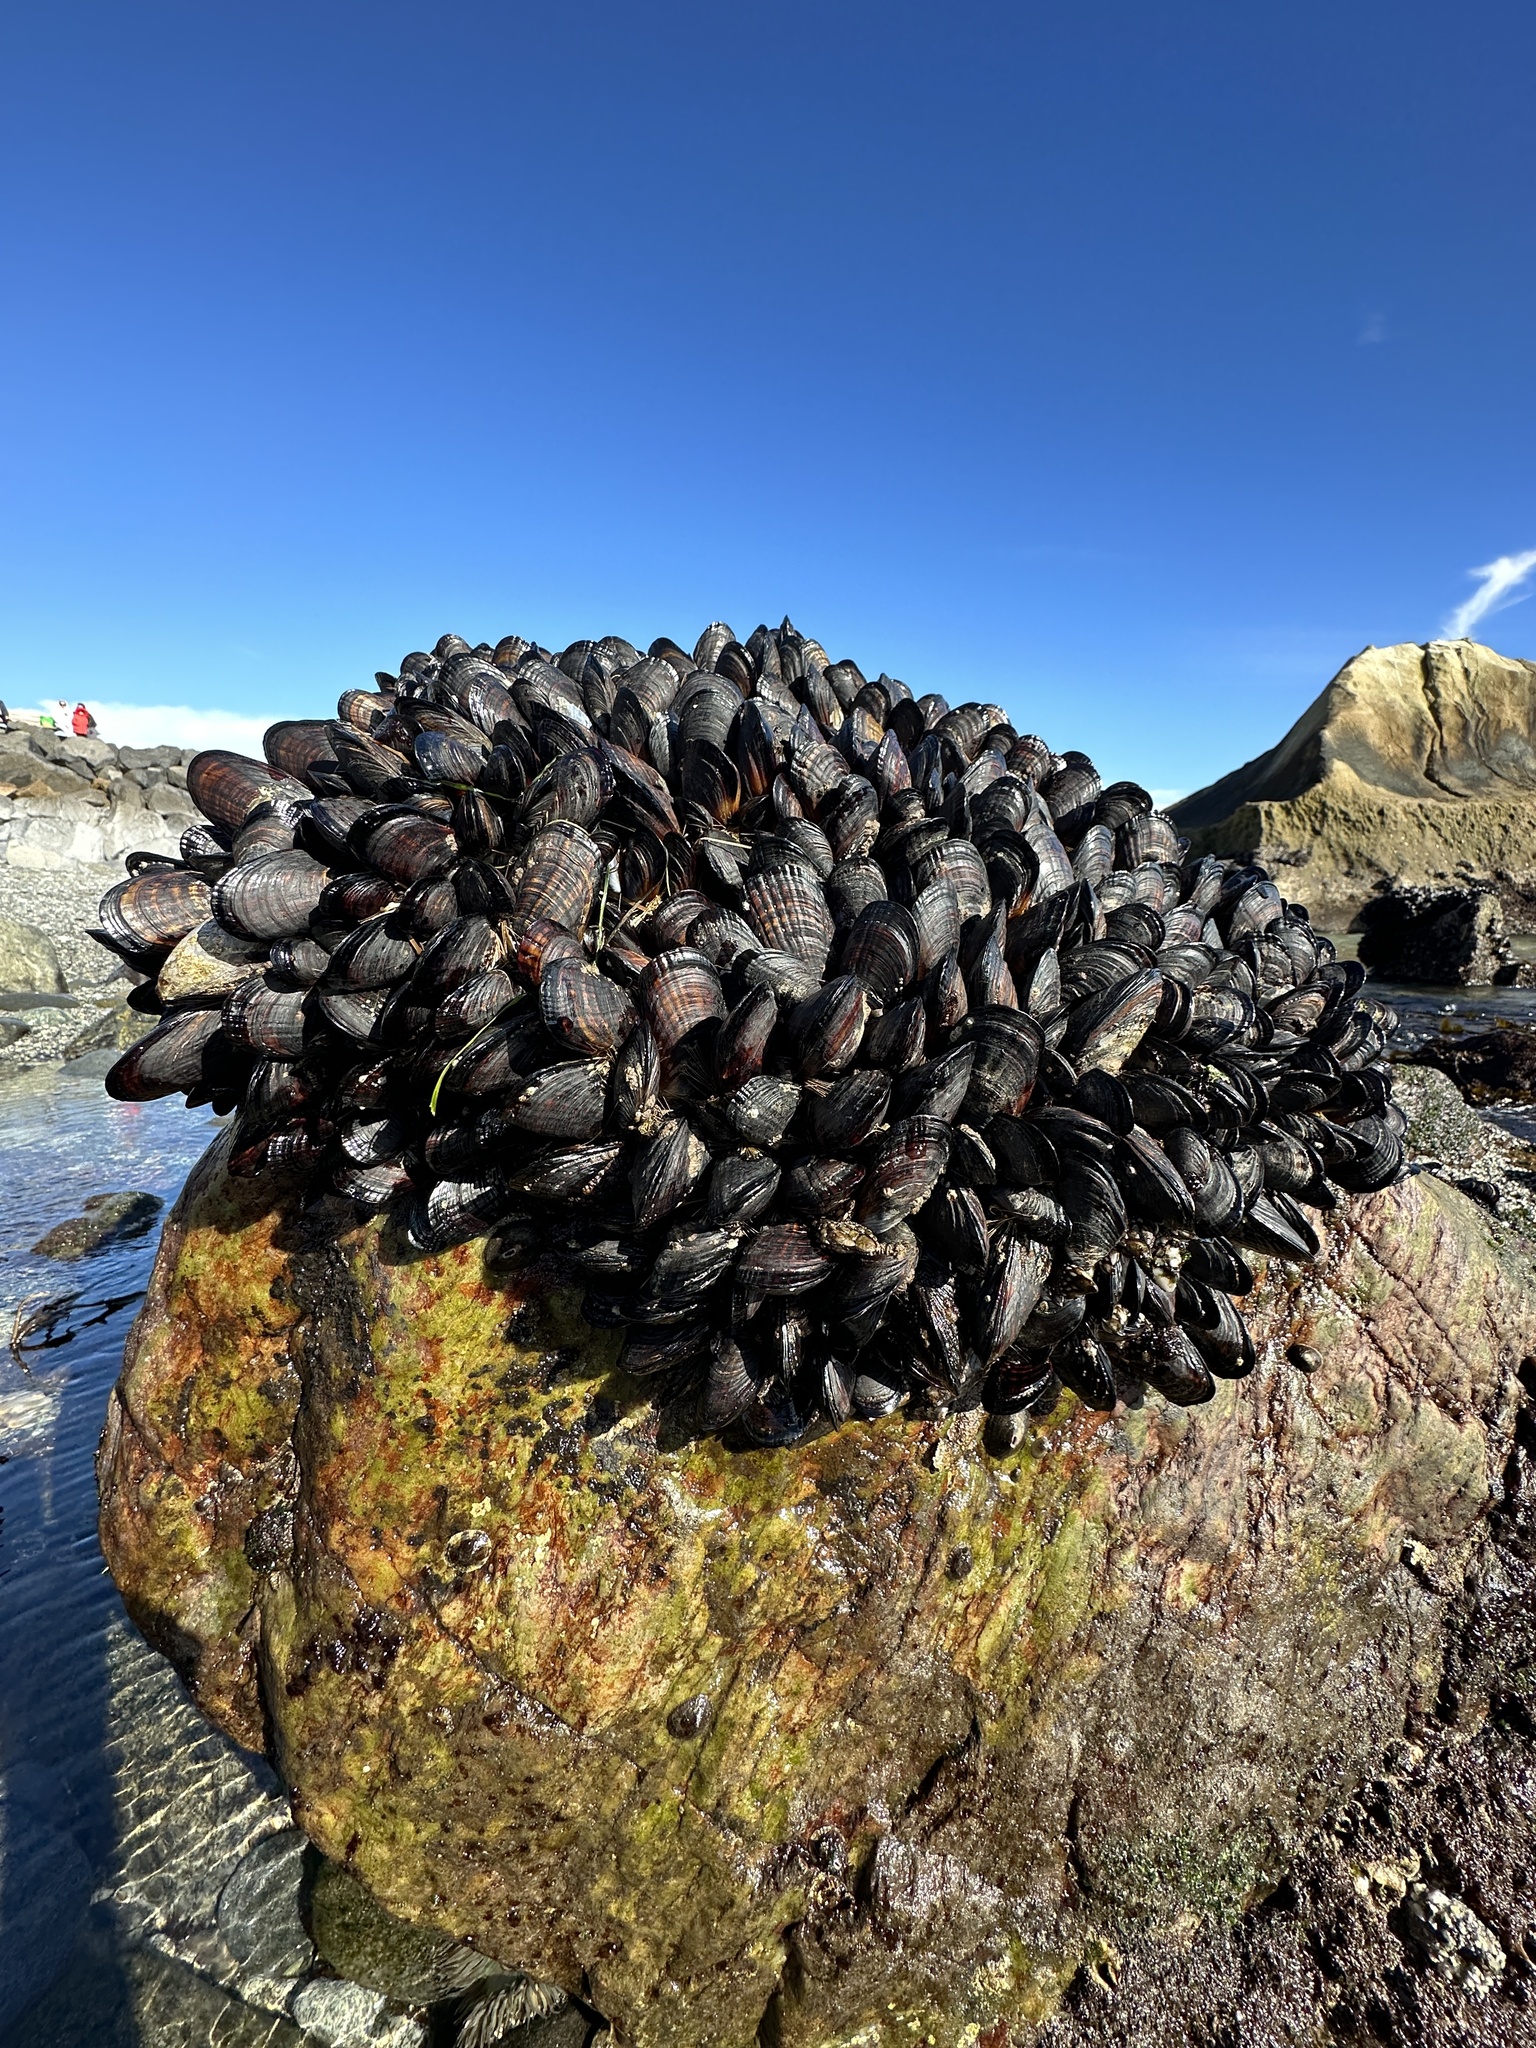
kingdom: Animalia
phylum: Mollusca
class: Bivalvia
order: Mytilida
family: Mytilidae
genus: Mytilus
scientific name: Mytilus californianus
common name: California mussel
